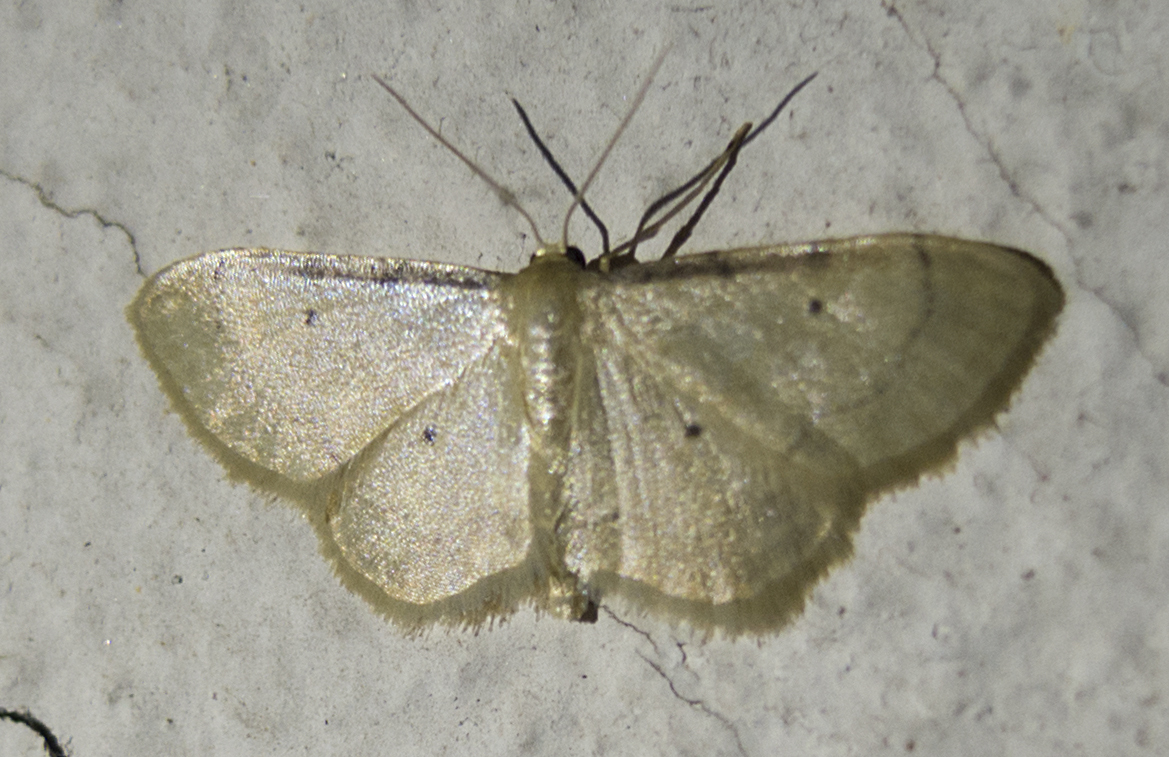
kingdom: Animalia
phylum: Arthropoda
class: Insecta
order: Lepidoptera
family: Geometridae
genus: Idaea
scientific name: Idaea politaria
